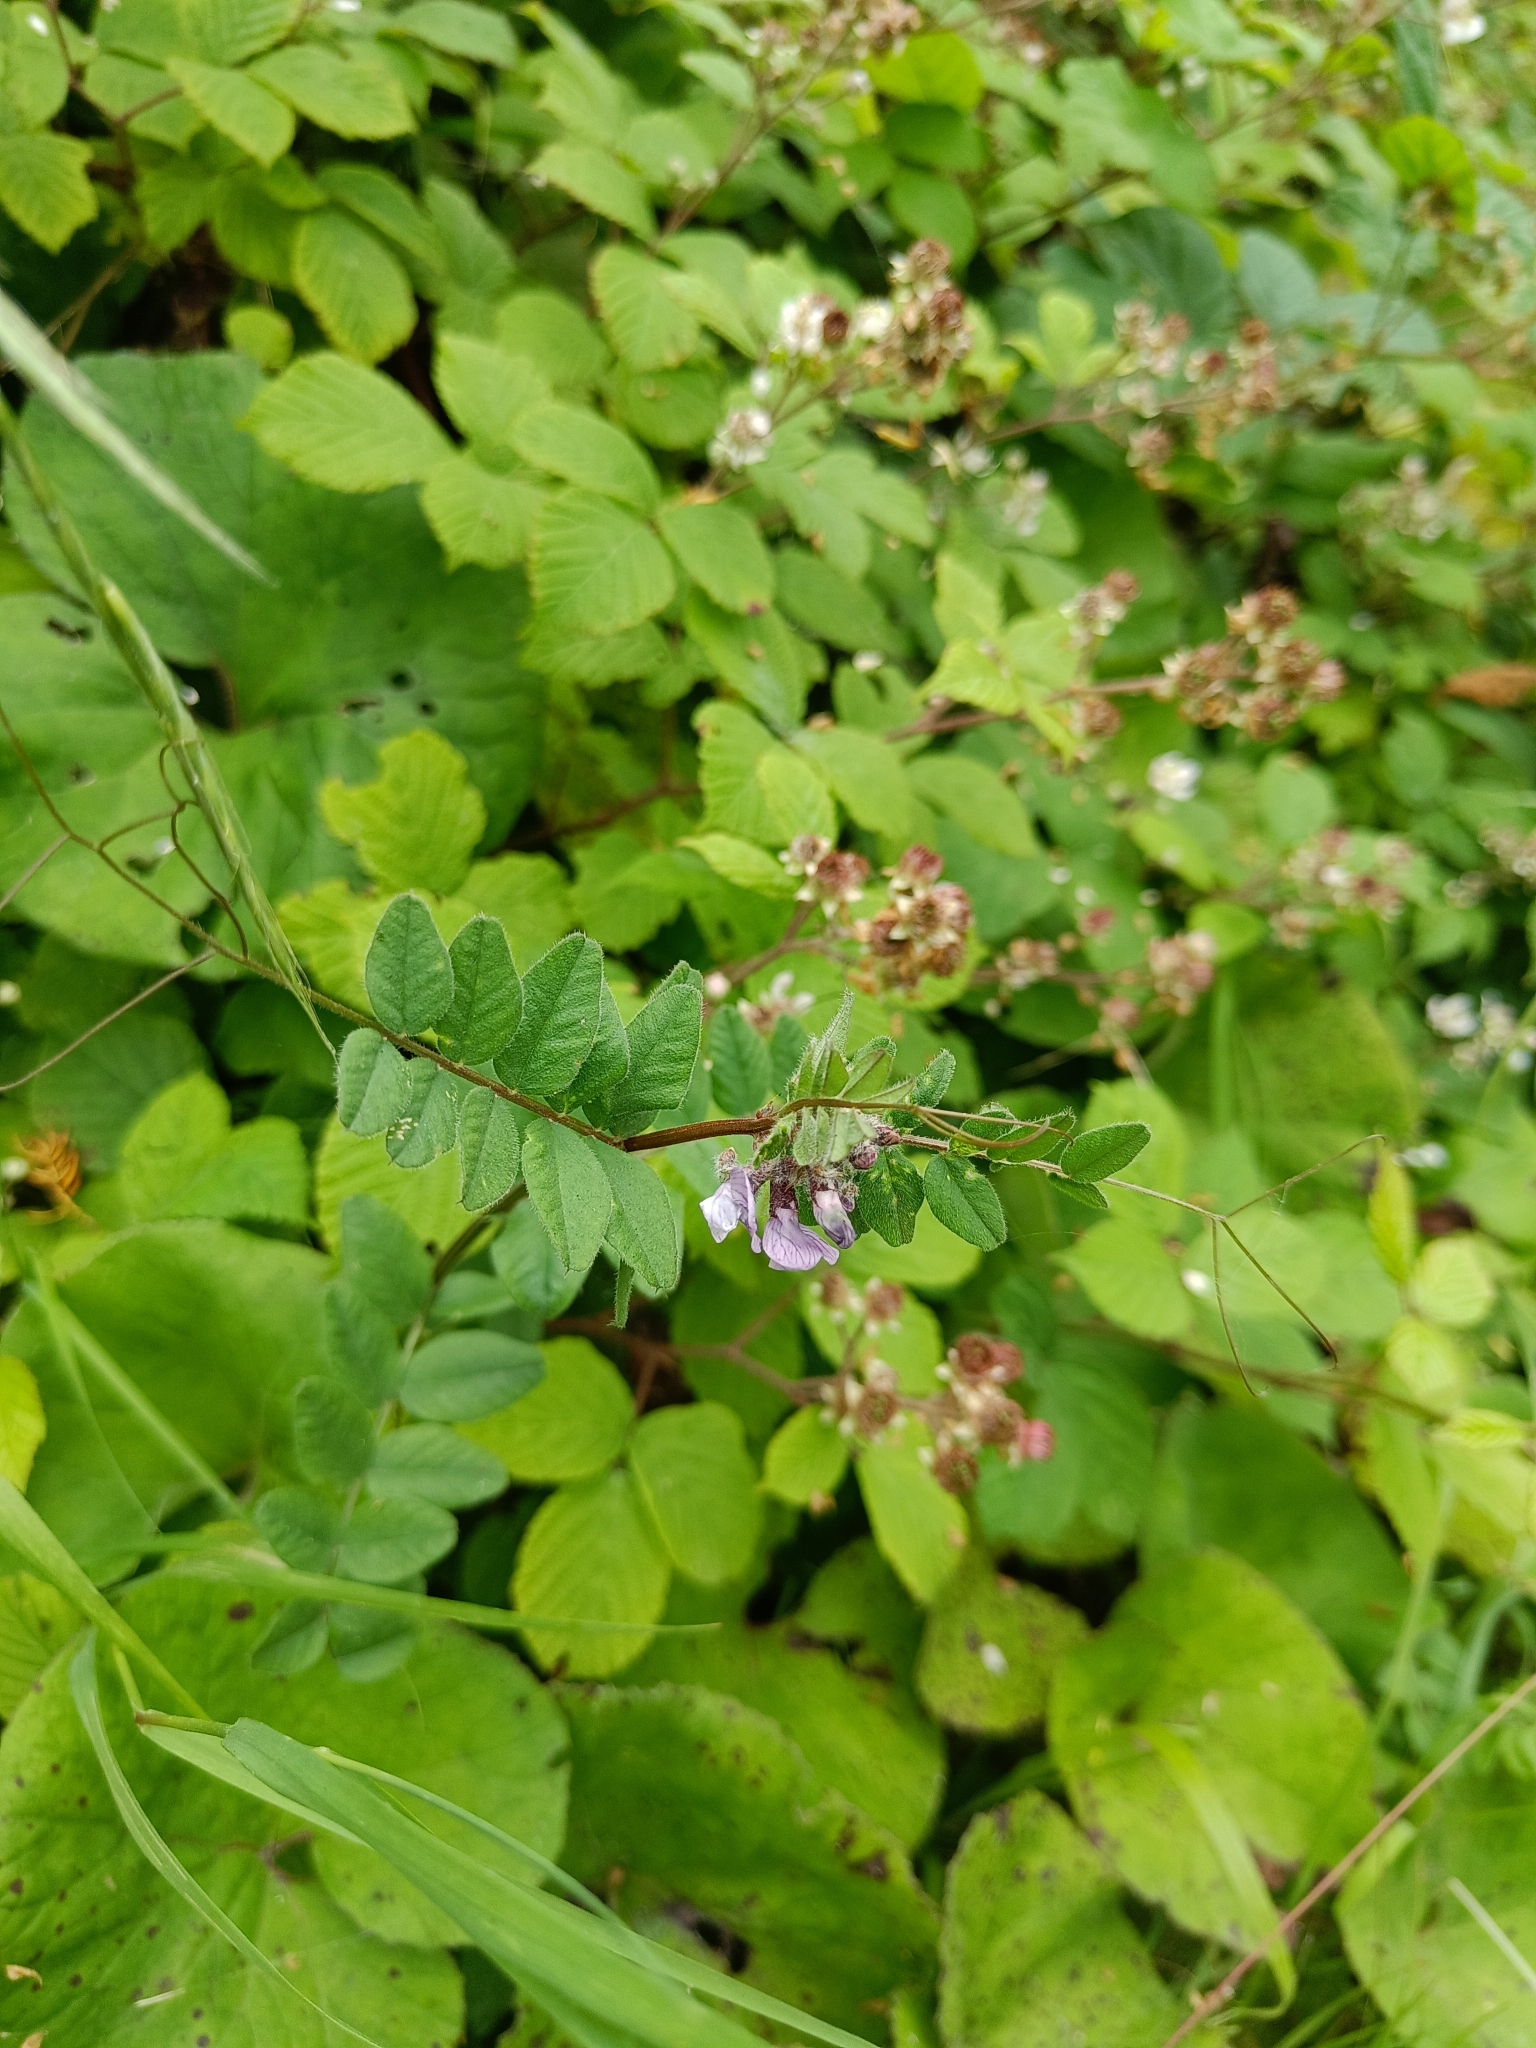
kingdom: Plantae
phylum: Tracheophyta
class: Magnoliopsida
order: Fabales
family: Fabaceae
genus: Vicia
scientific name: Vicia sepium
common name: Bush vetch
